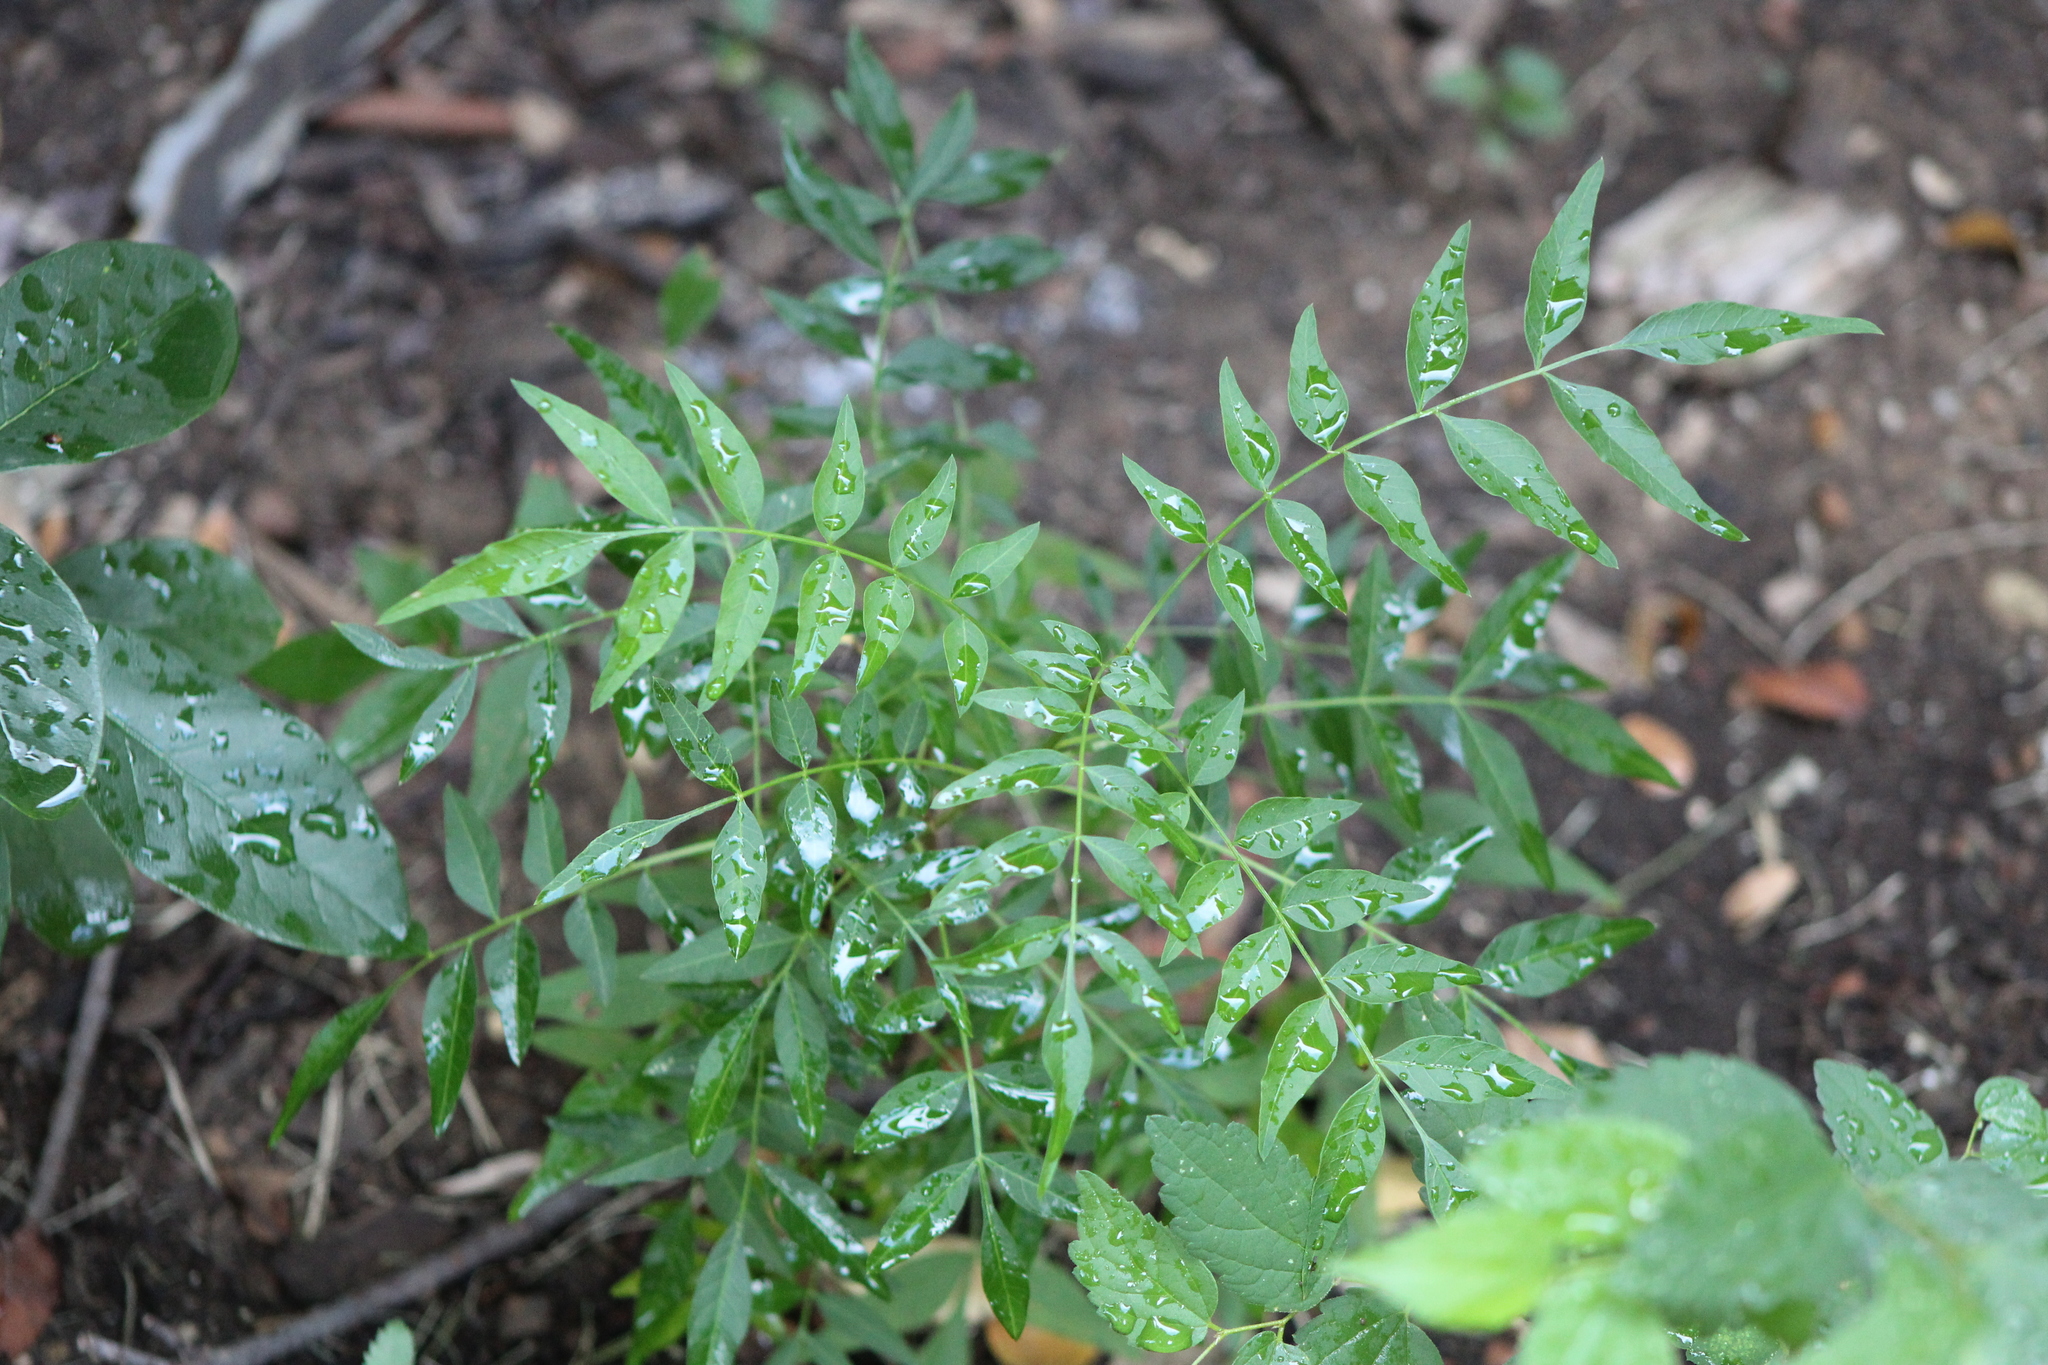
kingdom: Plantae
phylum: Tracheophyta
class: Magnoliopsida
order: Sapindales
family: Anacardiaceae
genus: Pistacia
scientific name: Pistacia chinensis
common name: Chinese pistache
